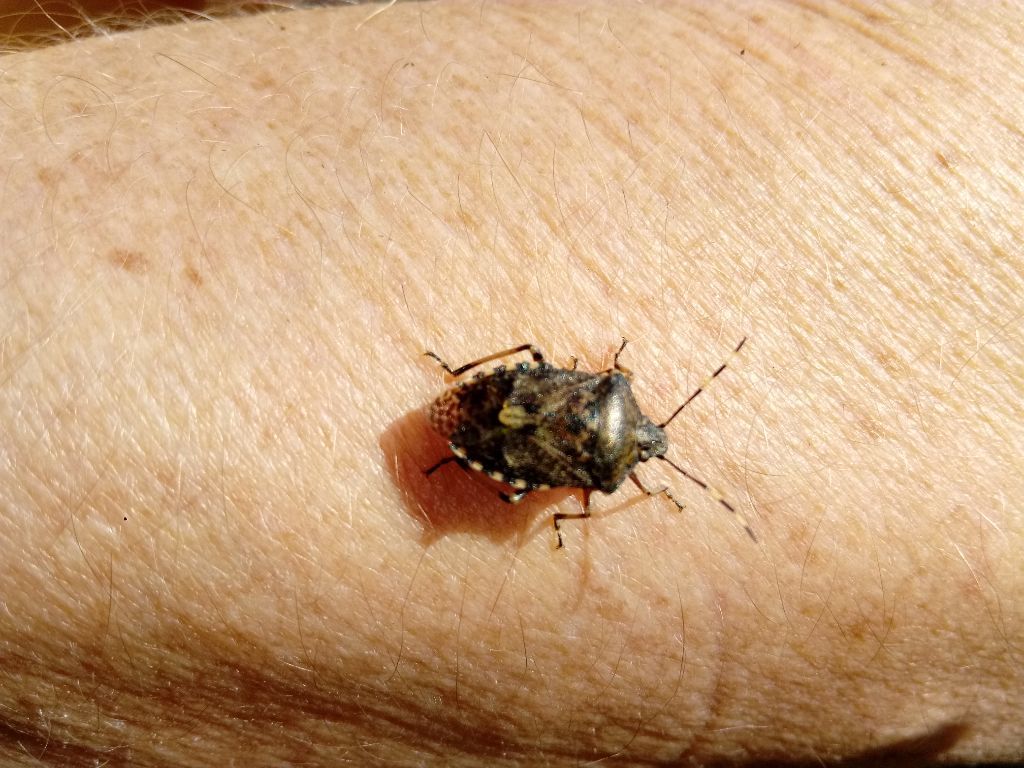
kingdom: Animalia
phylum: Arthropoda
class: Insecta
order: Hemiptera
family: Pentatomidae
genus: Rhaphigaster
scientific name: Rhaphigaster nebulosa
